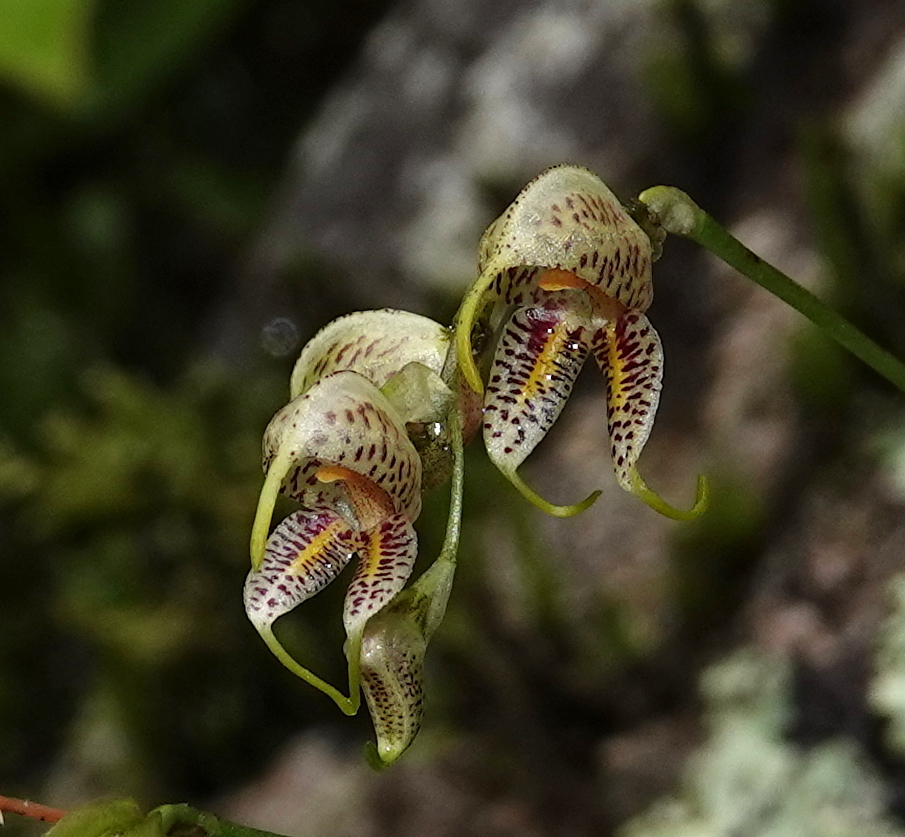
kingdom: Plantae
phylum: Tracheophyta
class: Liliopsida
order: Asparagales
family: Orchidaceae
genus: Masdevallia
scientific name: Masdevallia amanda
